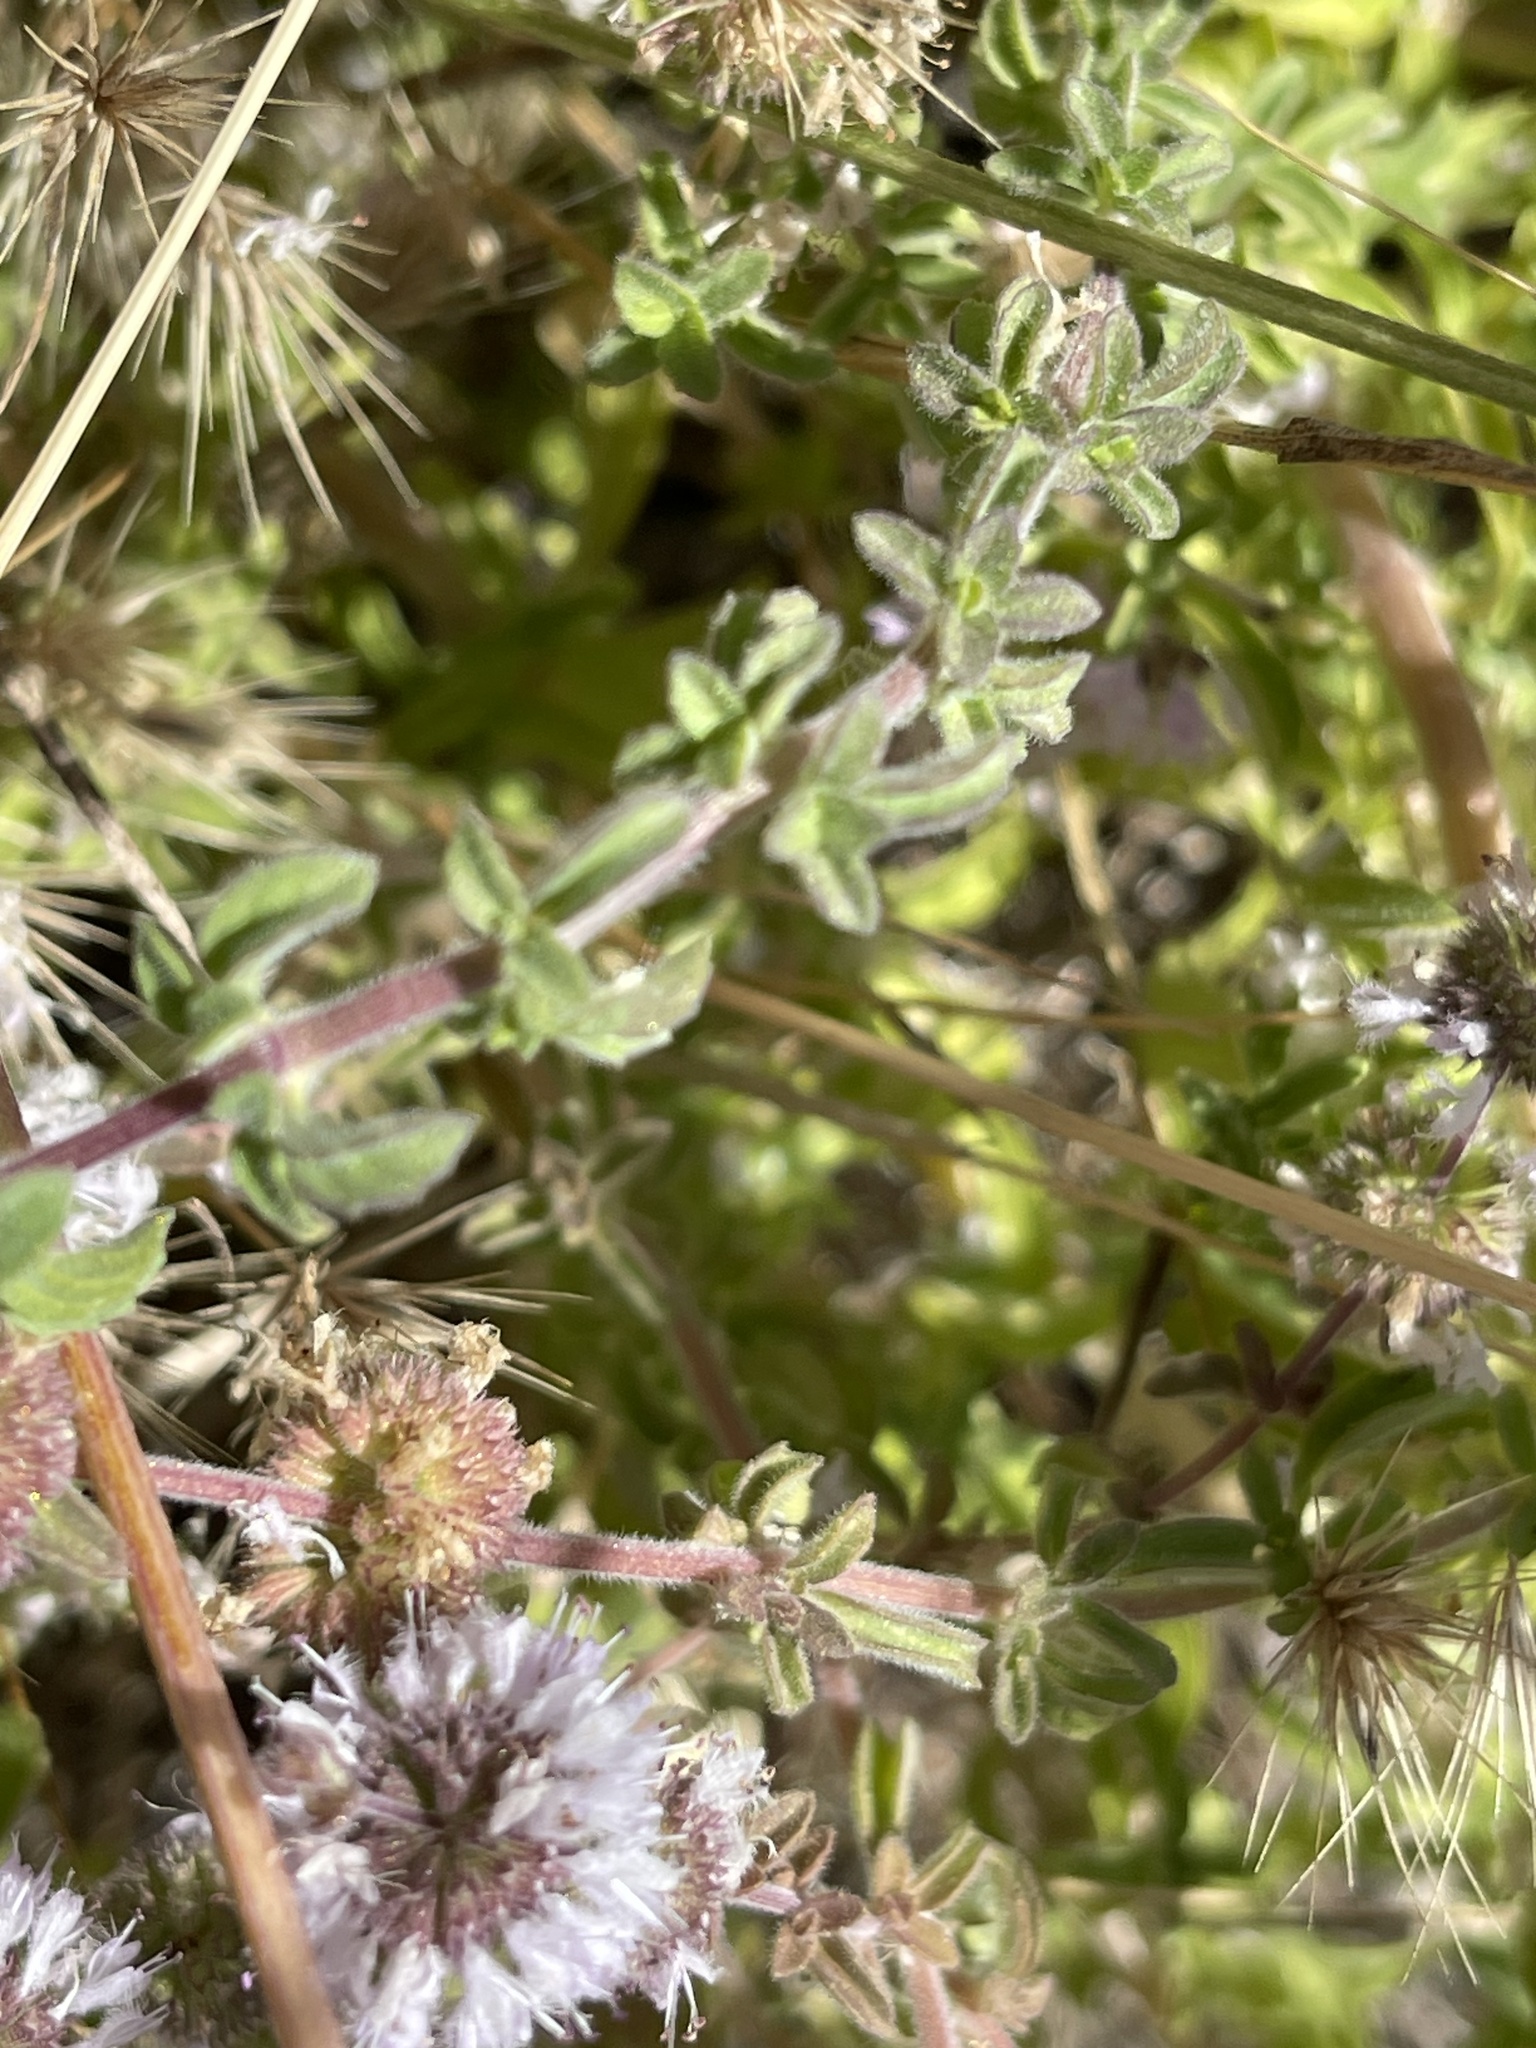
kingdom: Plantae
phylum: Tracheophyta
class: Magnoliopsida
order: Lamiales
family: Lamiaceae
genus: Mentha
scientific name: Mentha pulegium
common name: Pennyroyal
